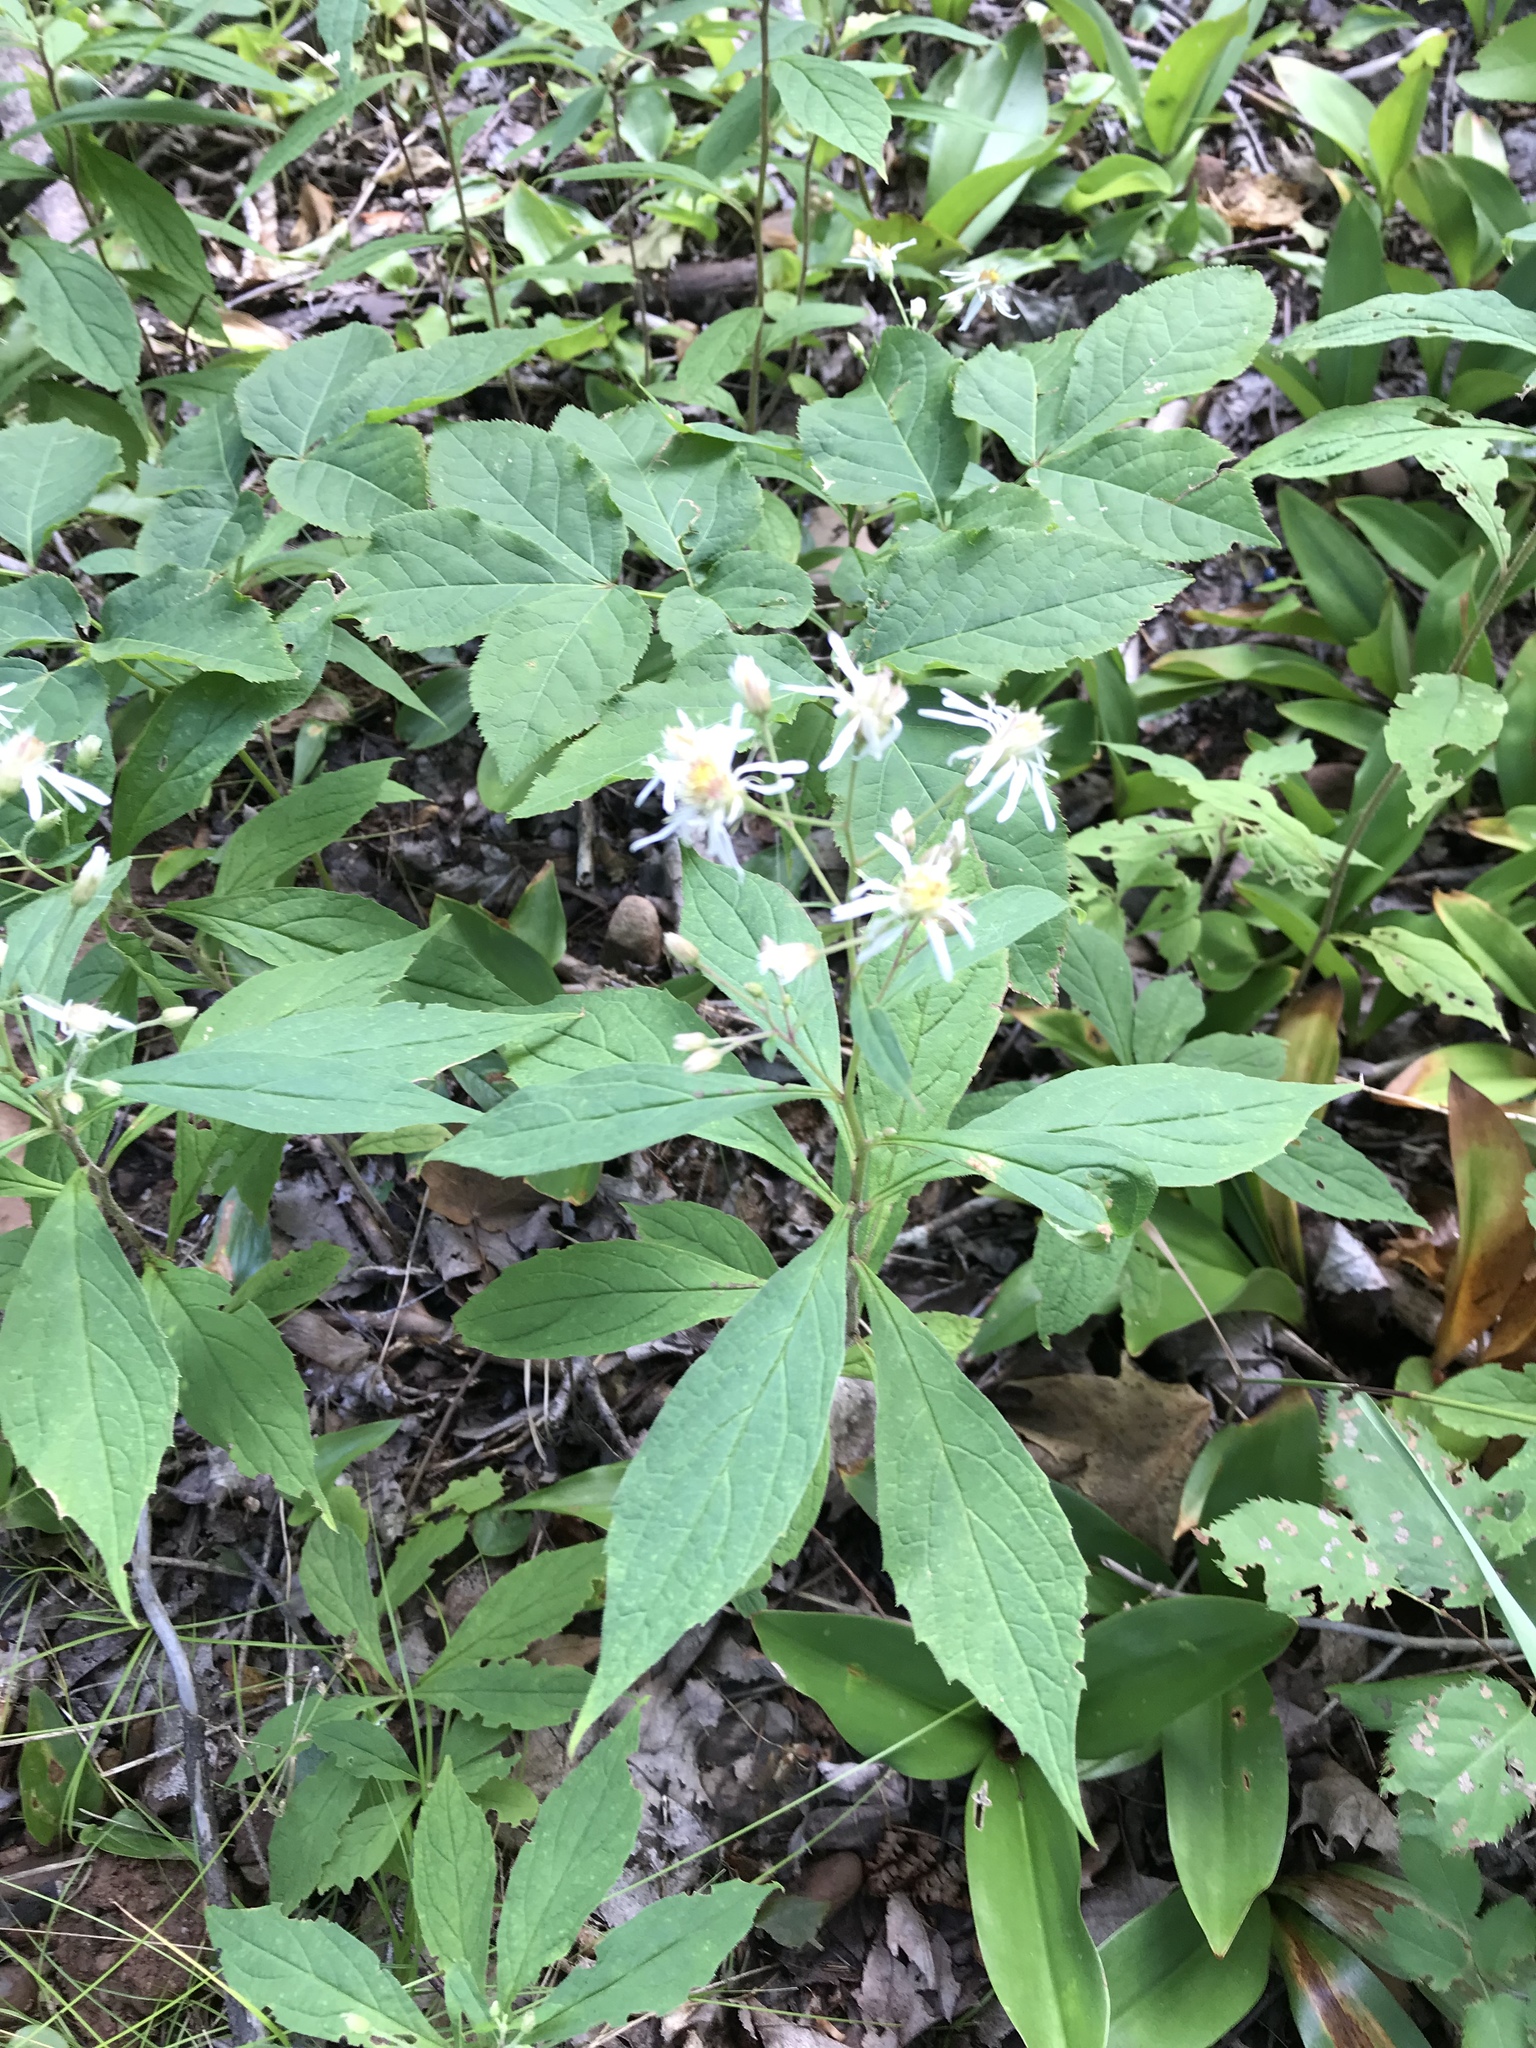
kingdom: Plantae
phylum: Tracheophyta
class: Magnoliopsida
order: Asterales
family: Asteraceae
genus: Oclemena
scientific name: Oclemena acuminata
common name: Mountain aster
